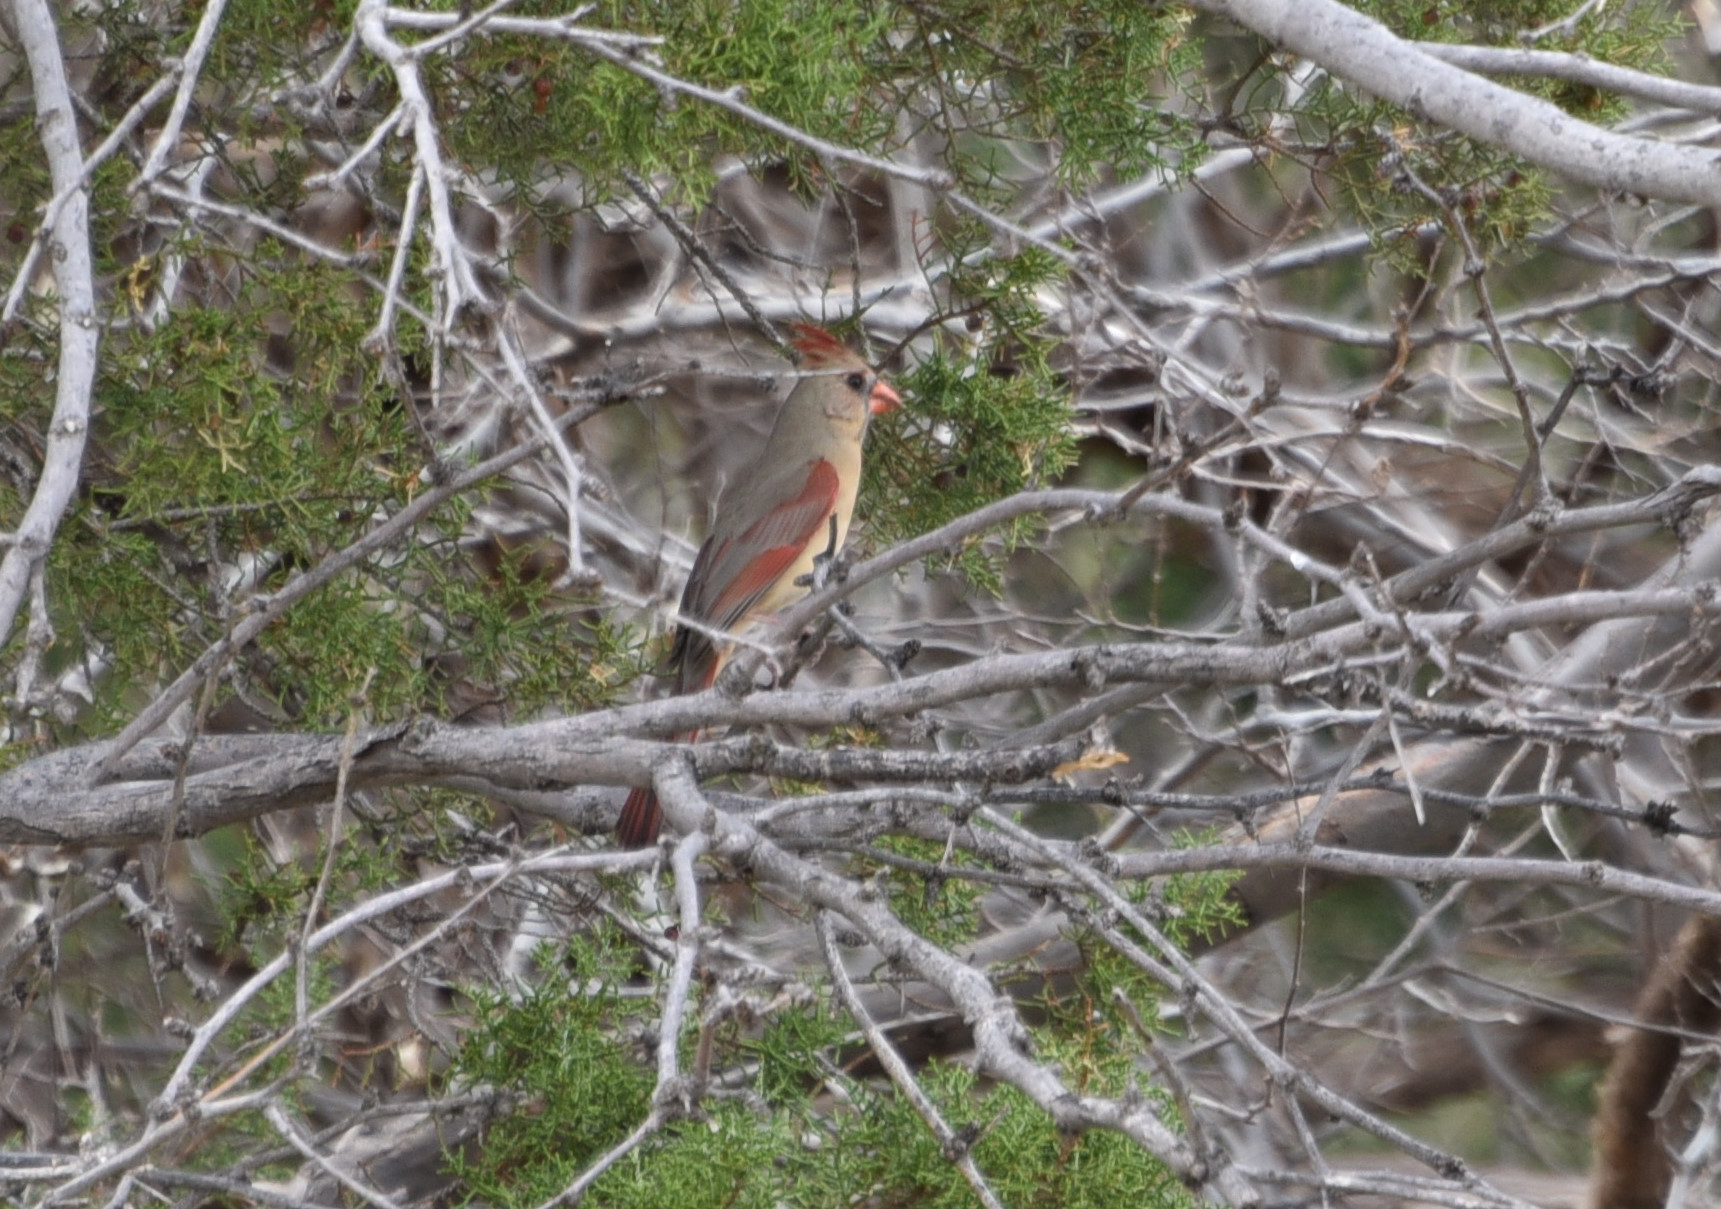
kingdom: Animalia
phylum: Chordata
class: Aves
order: Passeriformes
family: Cardinalidae
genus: Cardinalis
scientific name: Cardinalis cardinalis
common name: Northern cardinal
